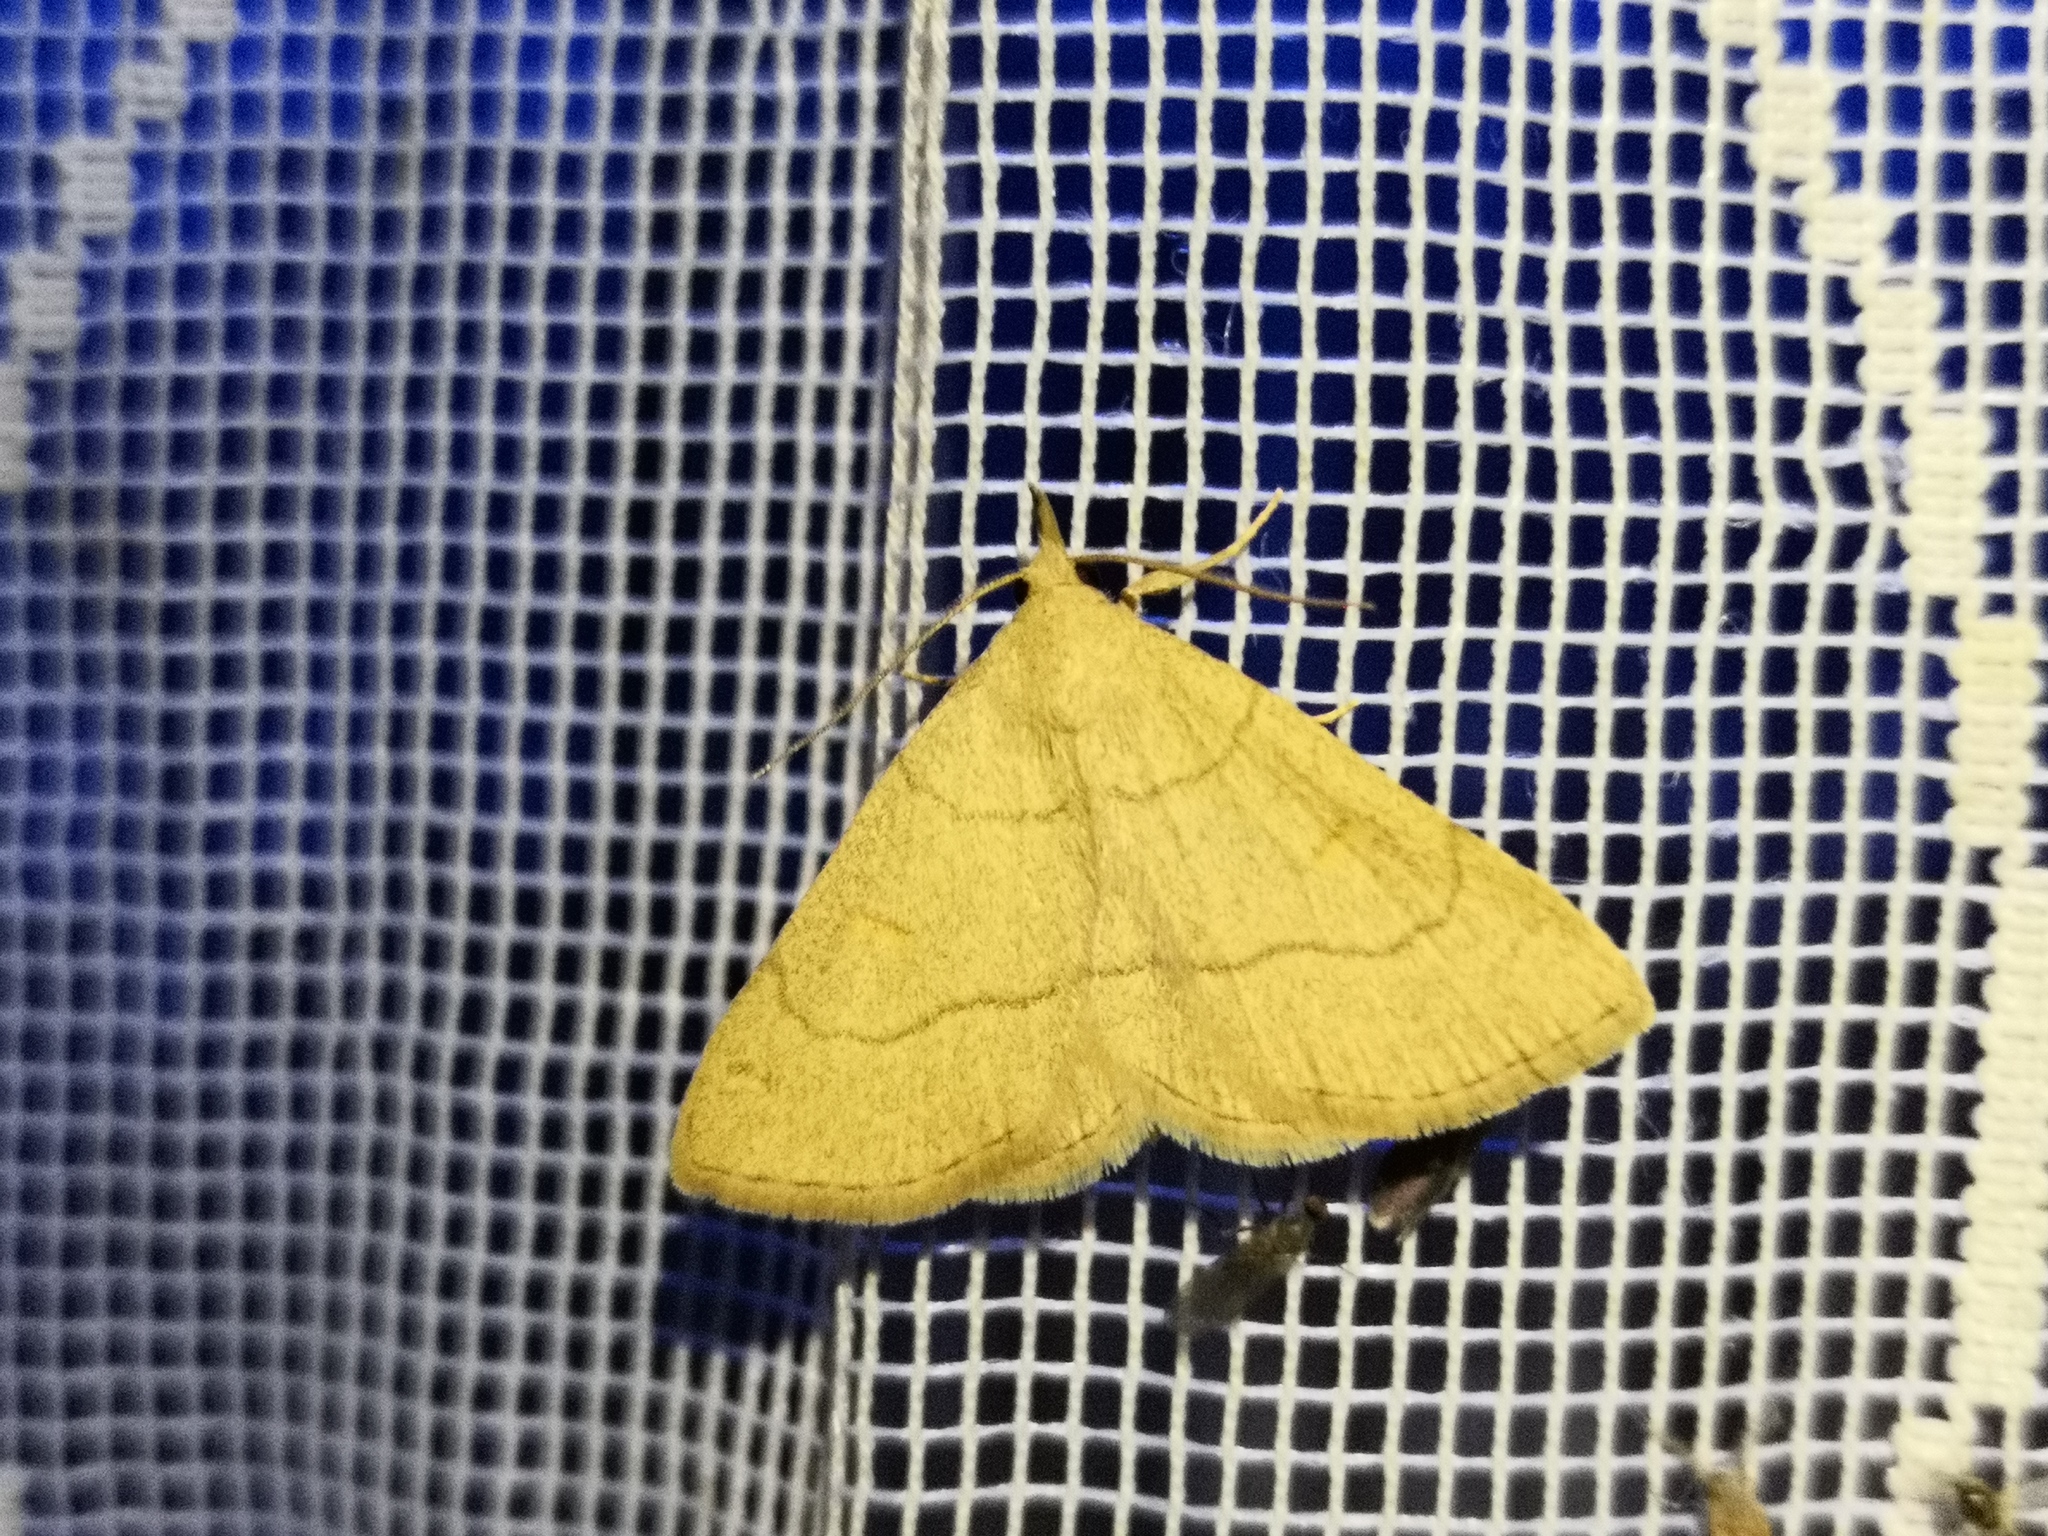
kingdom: Animalia
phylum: Arthropoda
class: Insecta
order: Lepidoptera
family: Erebidae
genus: Paracolax
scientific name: Paracolax tristalis
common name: Clay fan-foot
